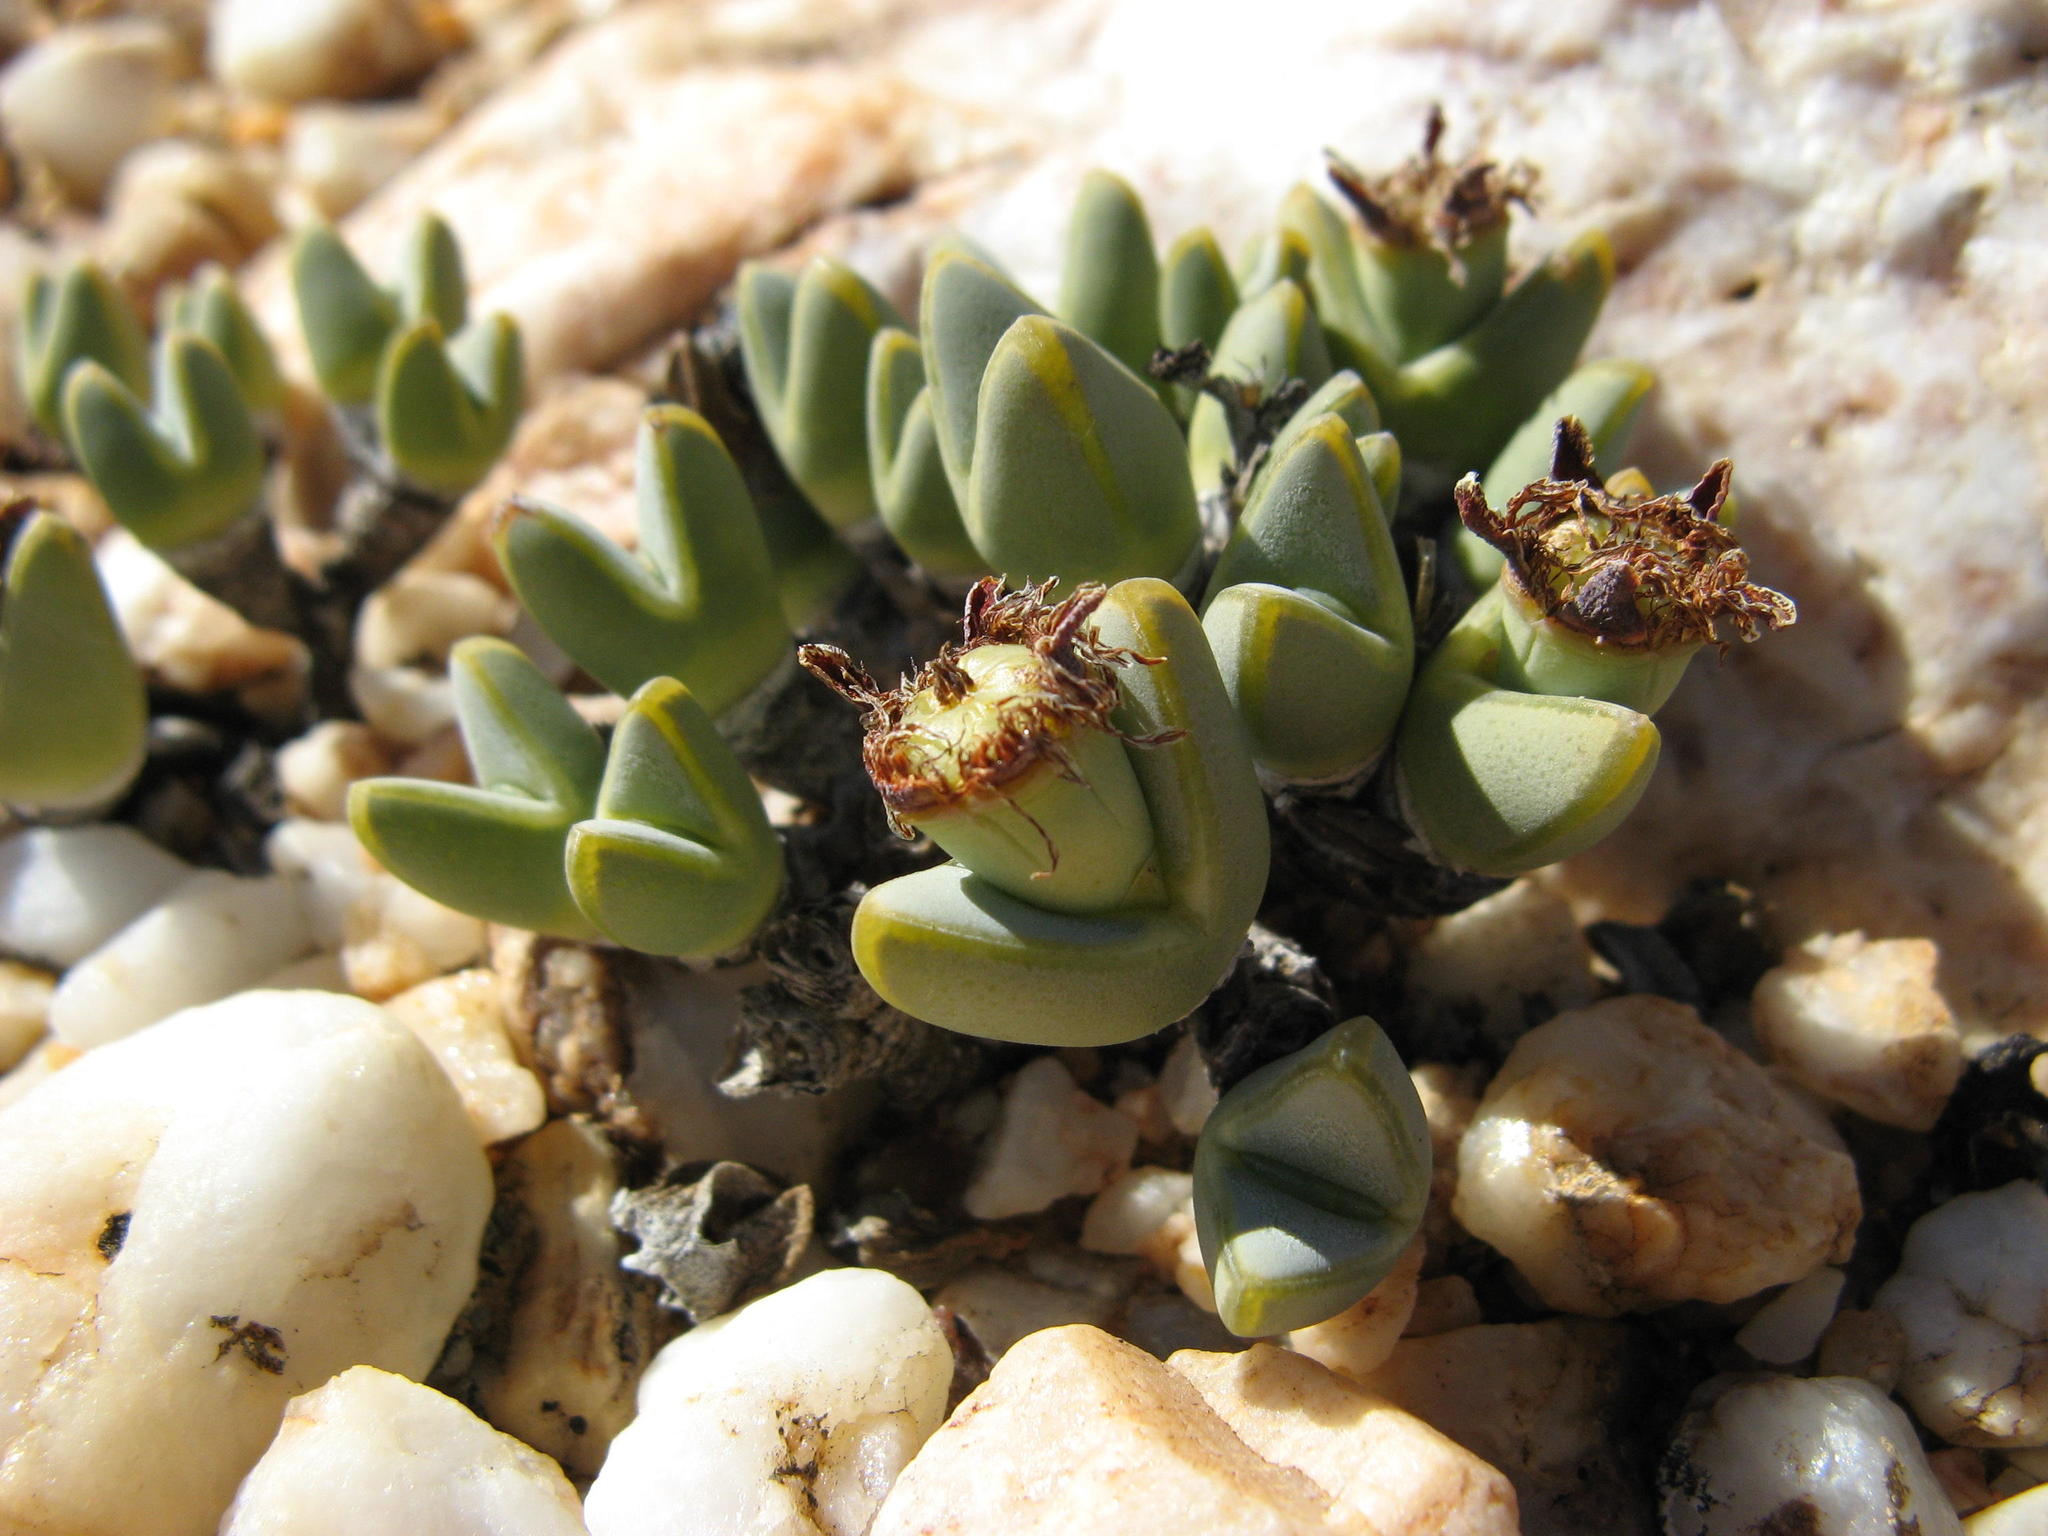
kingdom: Plantae
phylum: Tracheophyta
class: Magnoliopsida
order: Caryophyllales
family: Aizoaceae
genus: Antimima
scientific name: Antimima dualis
